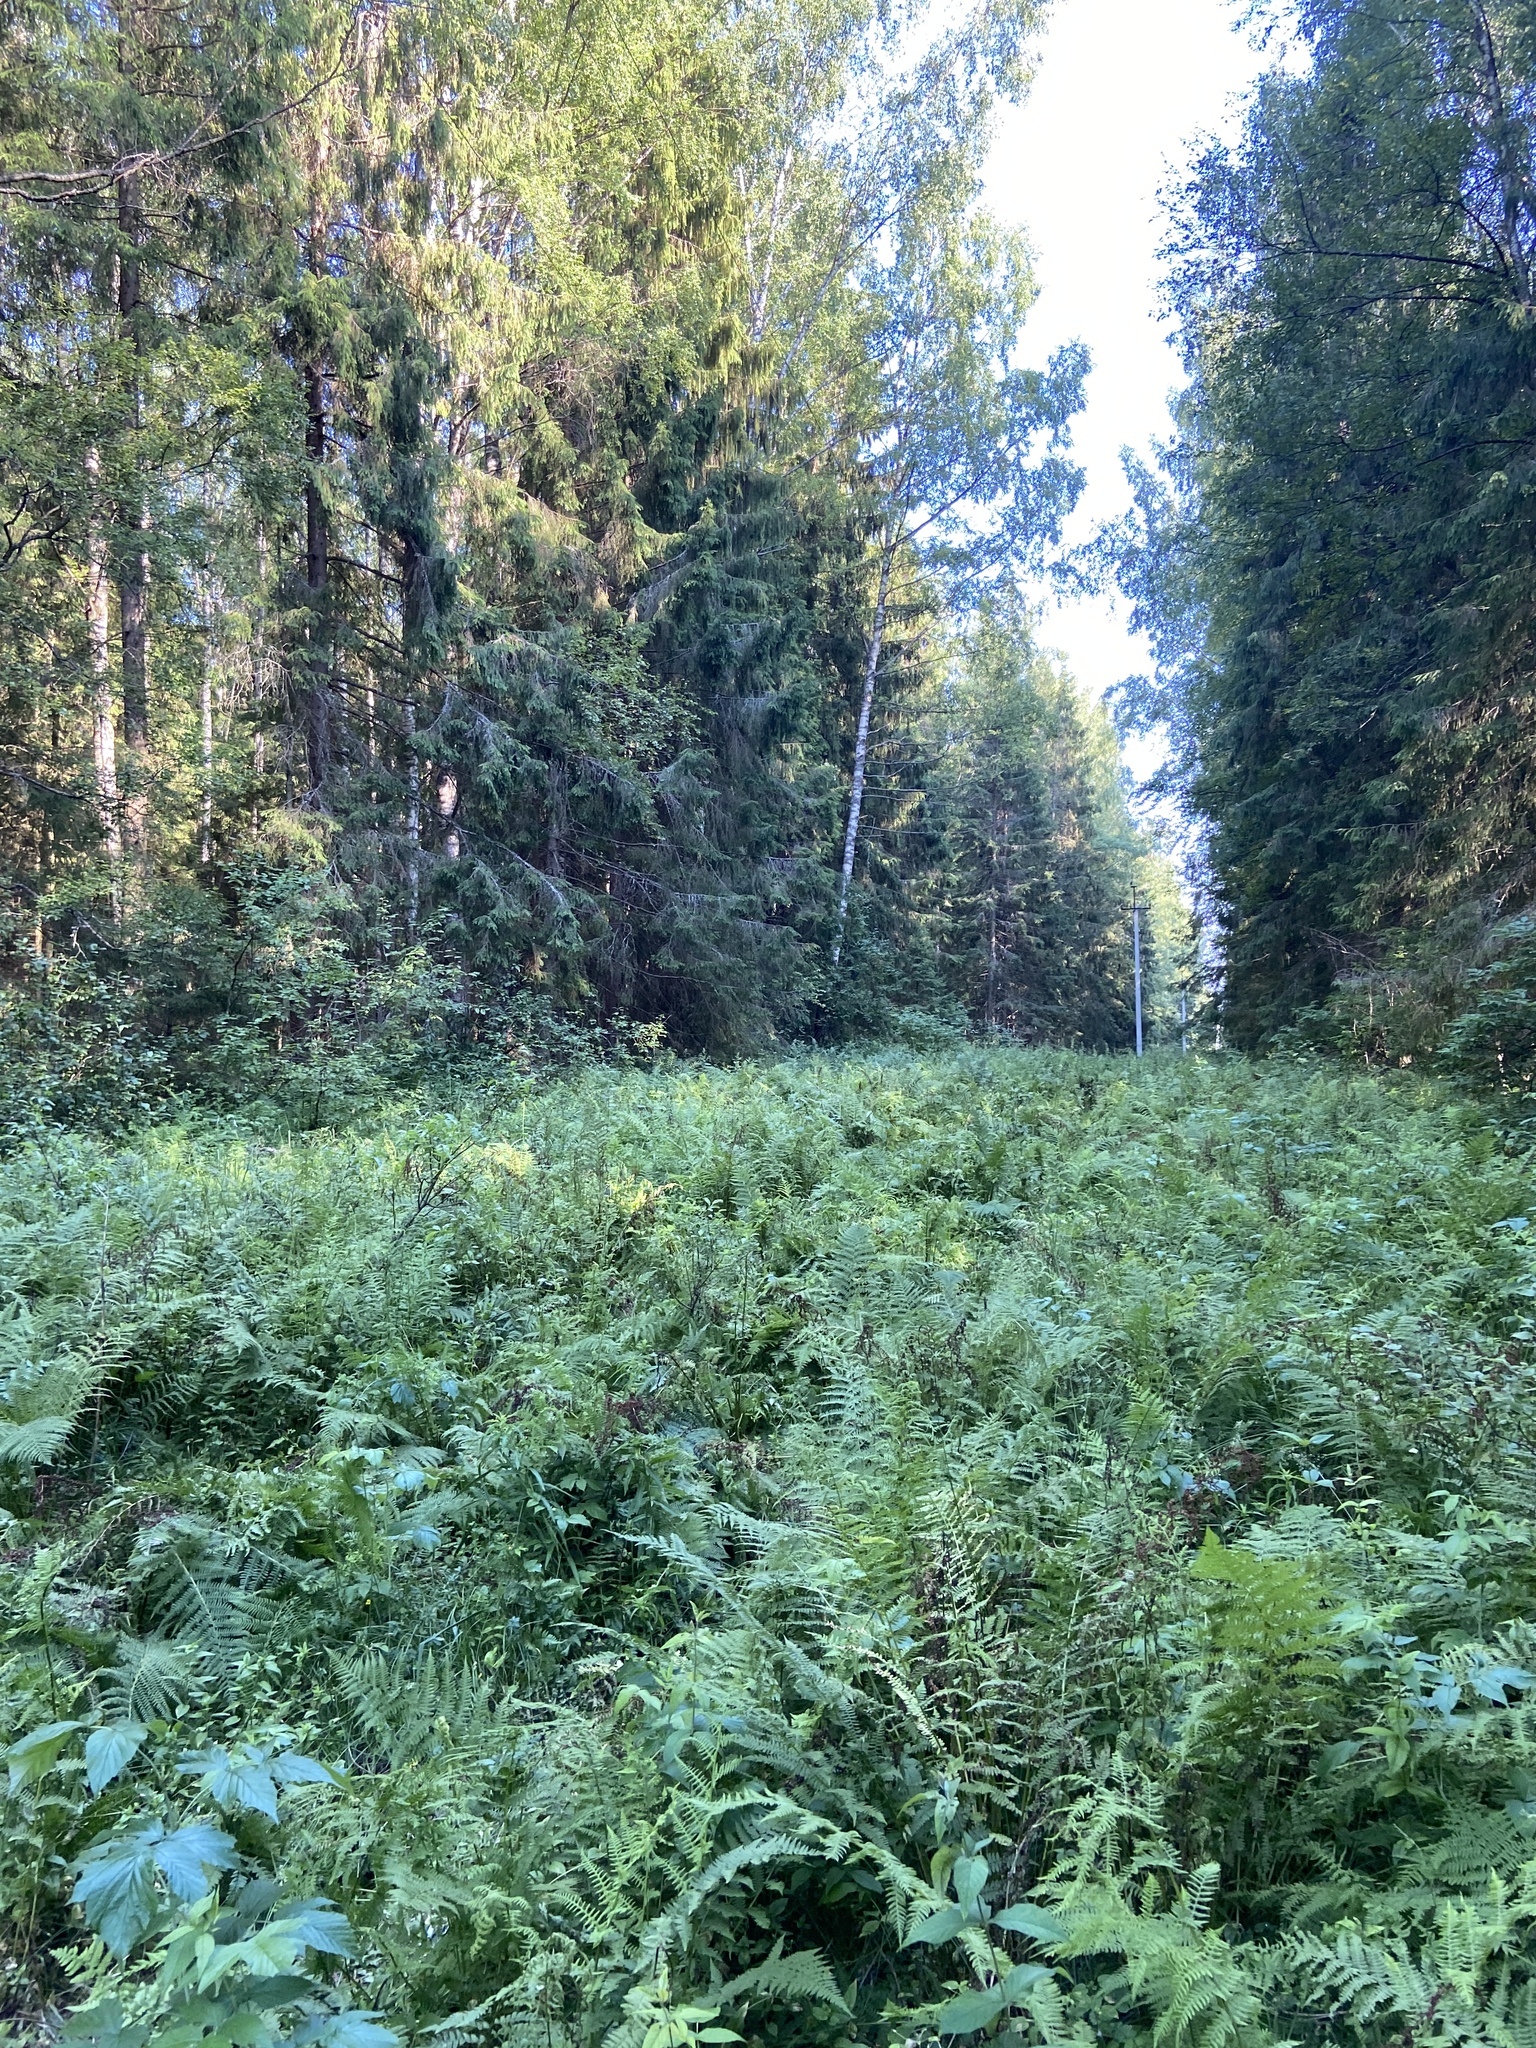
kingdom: Plantae
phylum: Tracheophyta
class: Polypodiopsida
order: Polypodiales
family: Athyriaceae
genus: Athyrium
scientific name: Athyrium filix-femina
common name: Lady fern
